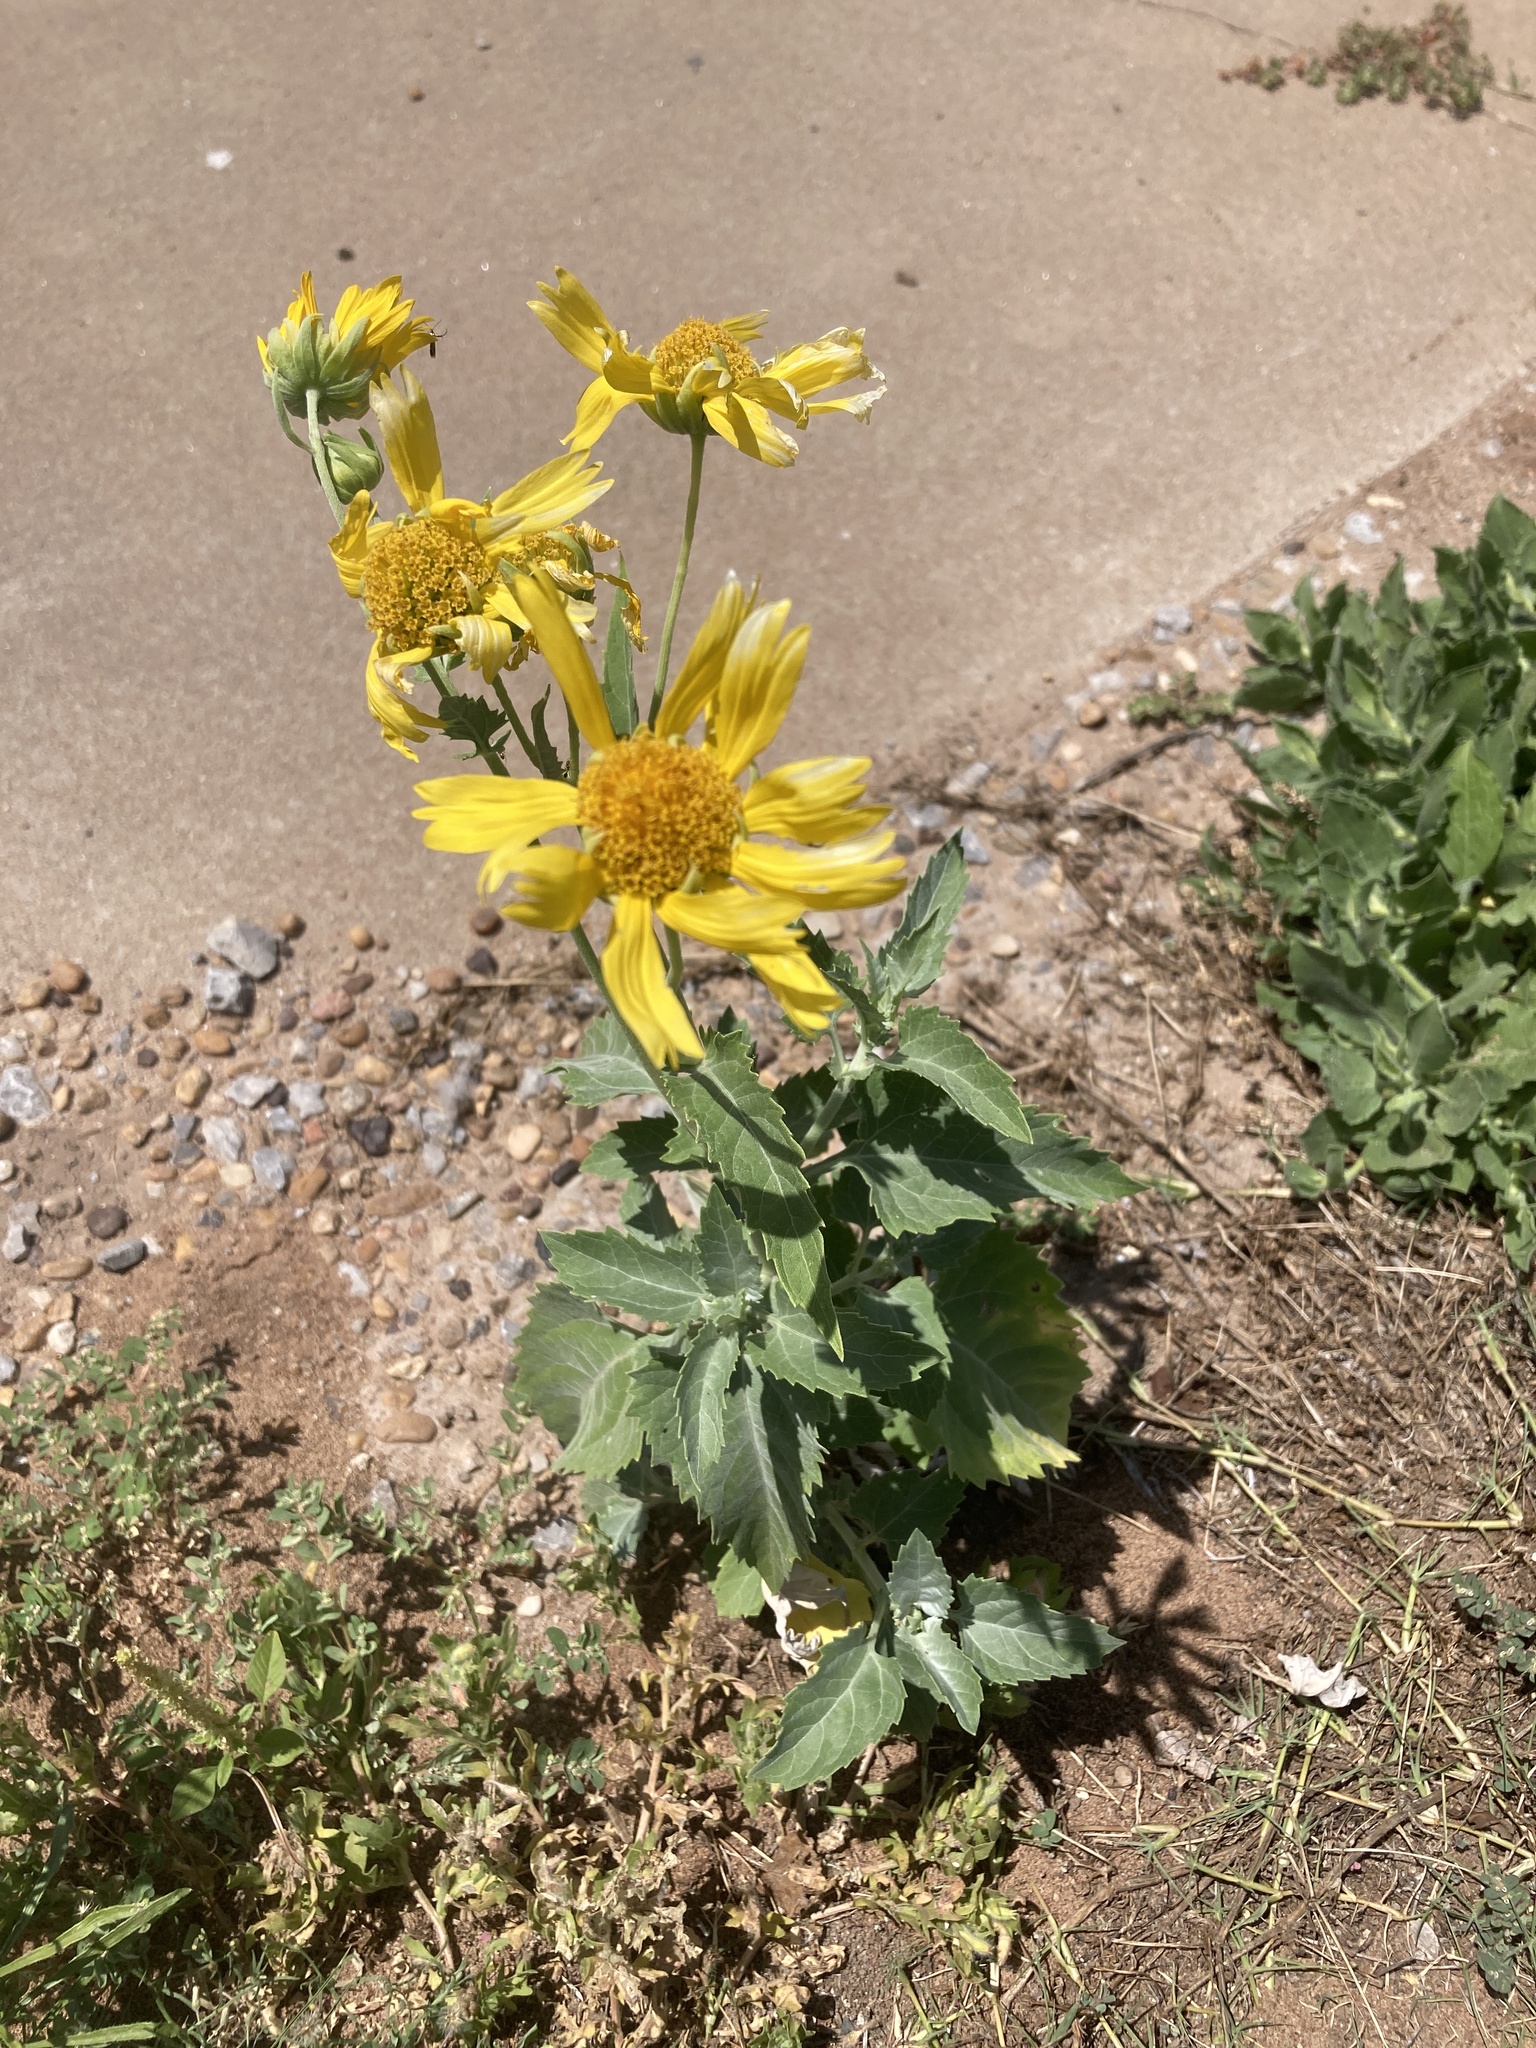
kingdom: Plantae
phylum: Tracheophyta
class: Magnoliopsida
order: Asterales
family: Asteraceae
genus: Verbesina
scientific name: Verbesina encelioides
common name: Golden crownbeard
